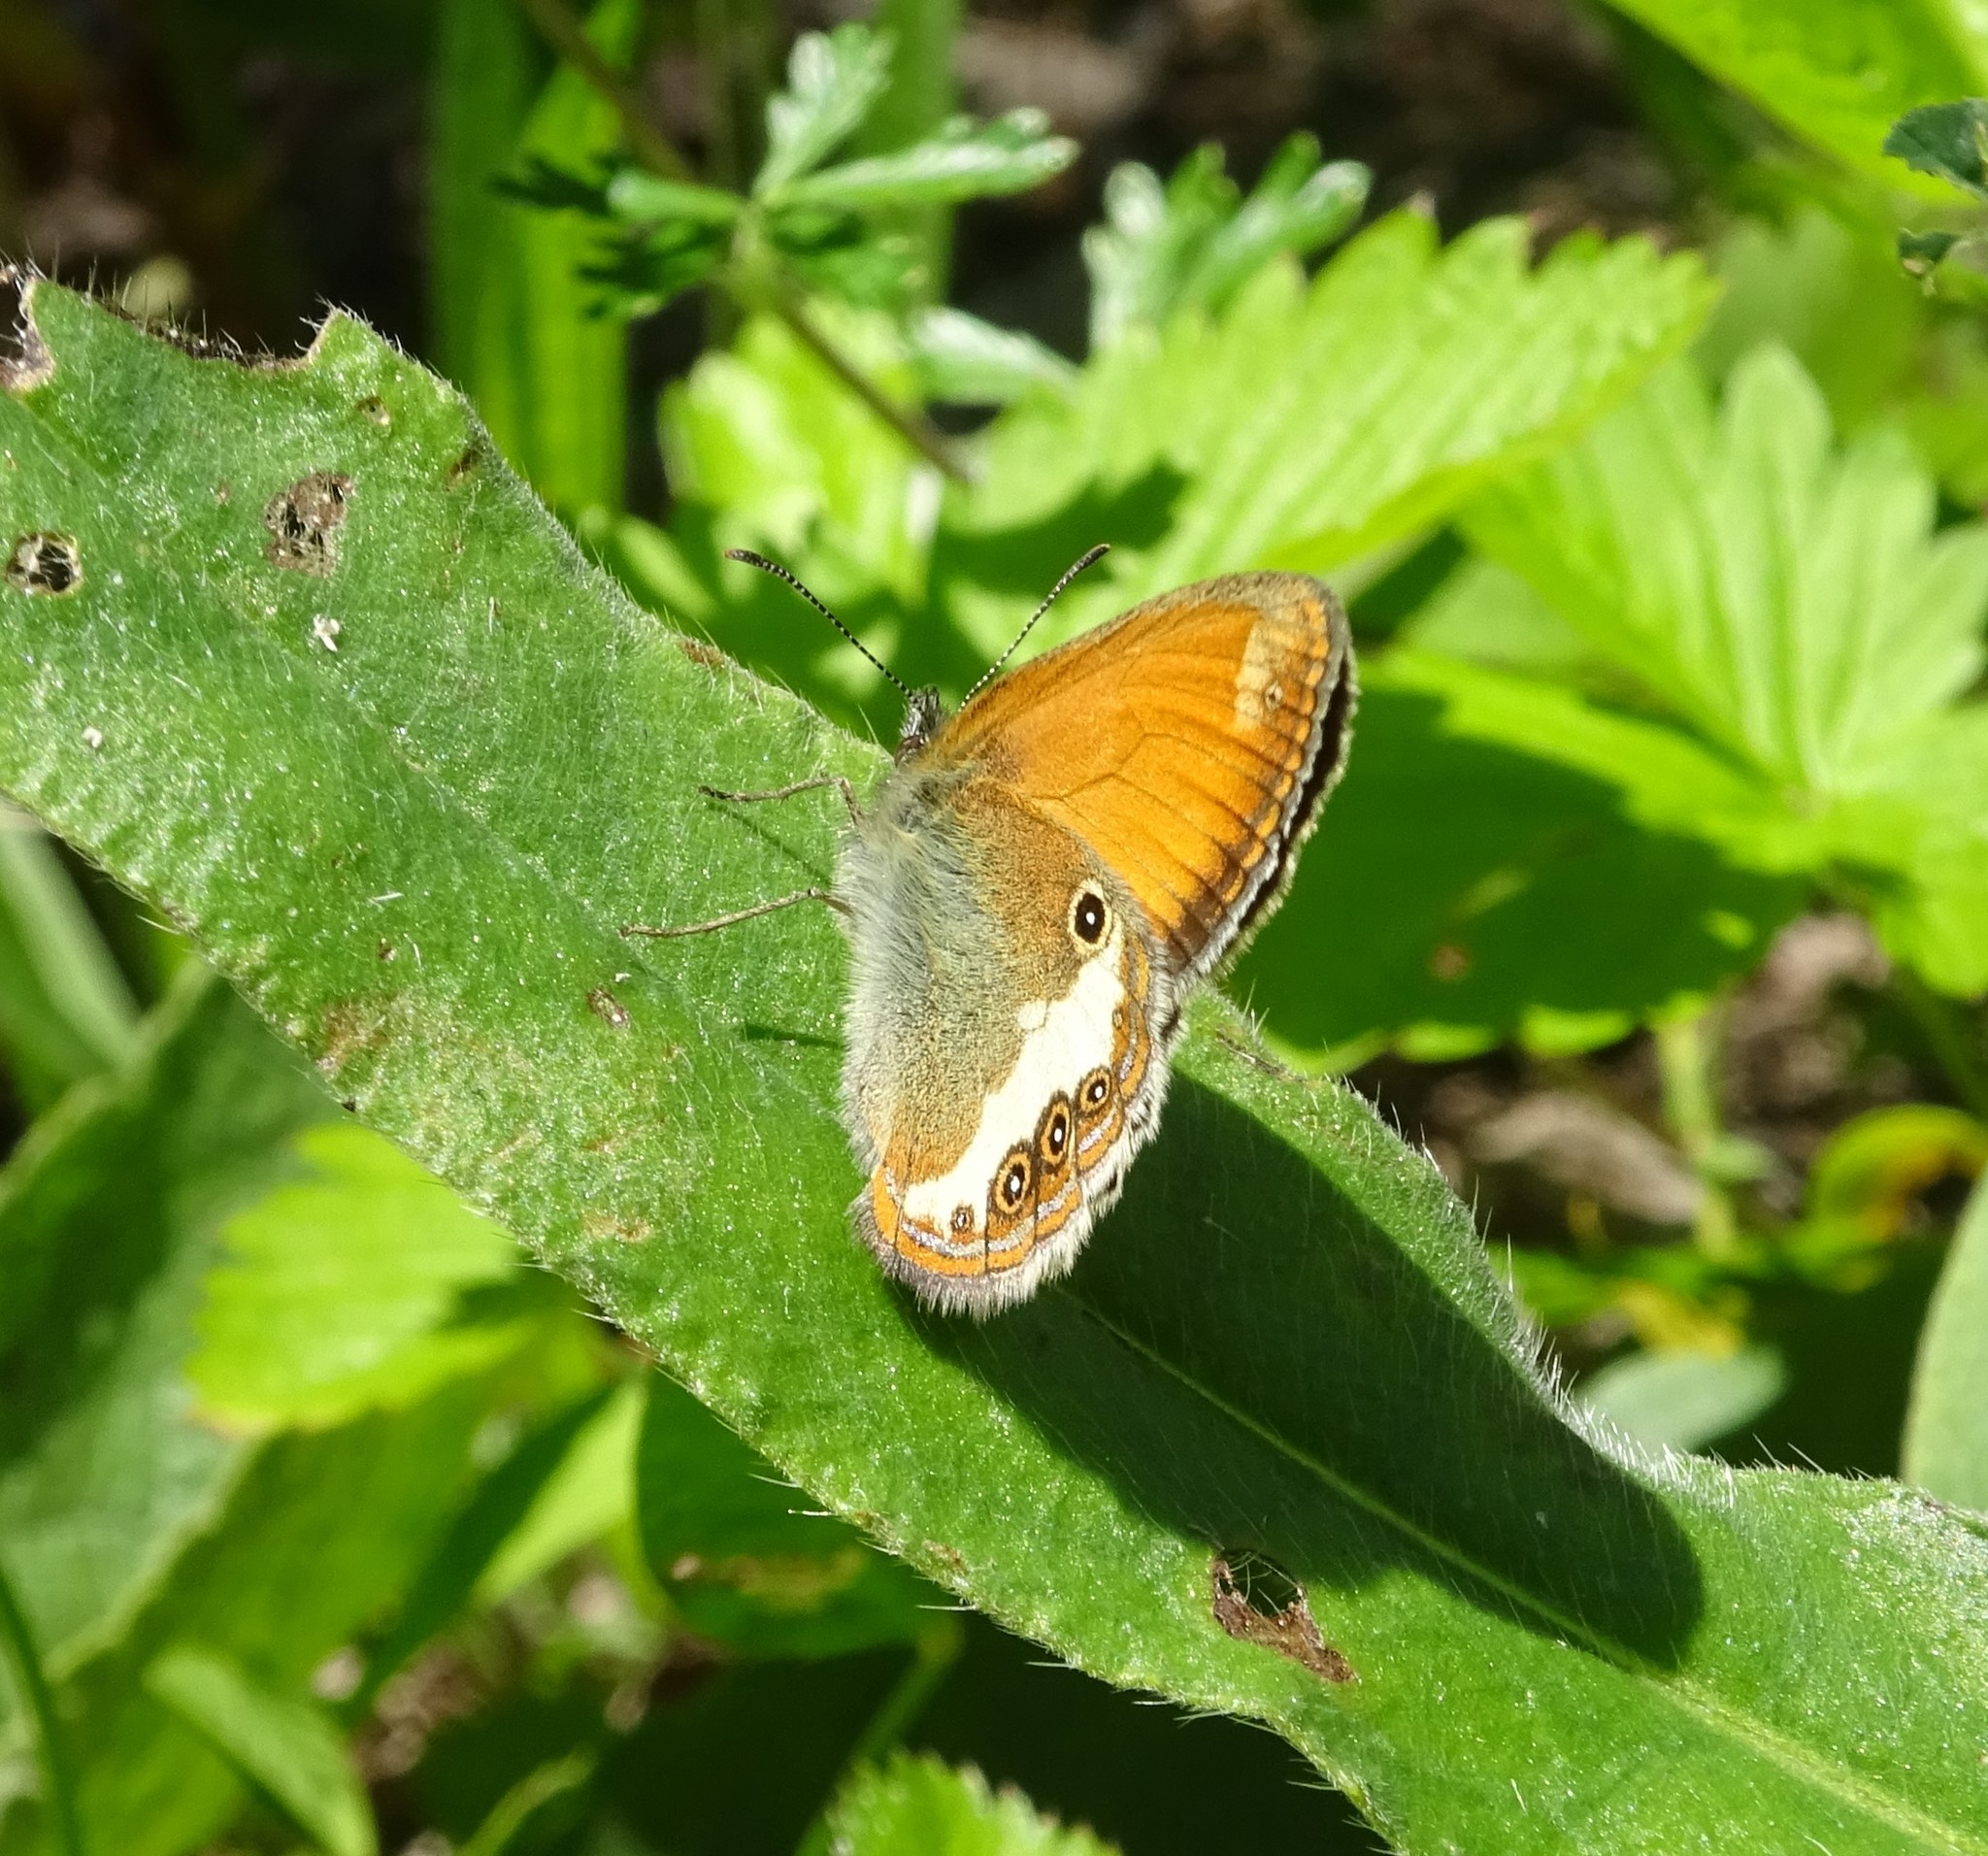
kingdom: Animalia
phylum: Arthropoda
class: Insecta
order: Lepidoptera
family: Nymphalidae
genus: Coenonympha
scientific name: Coenonympha arcania
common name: Pearly heath
